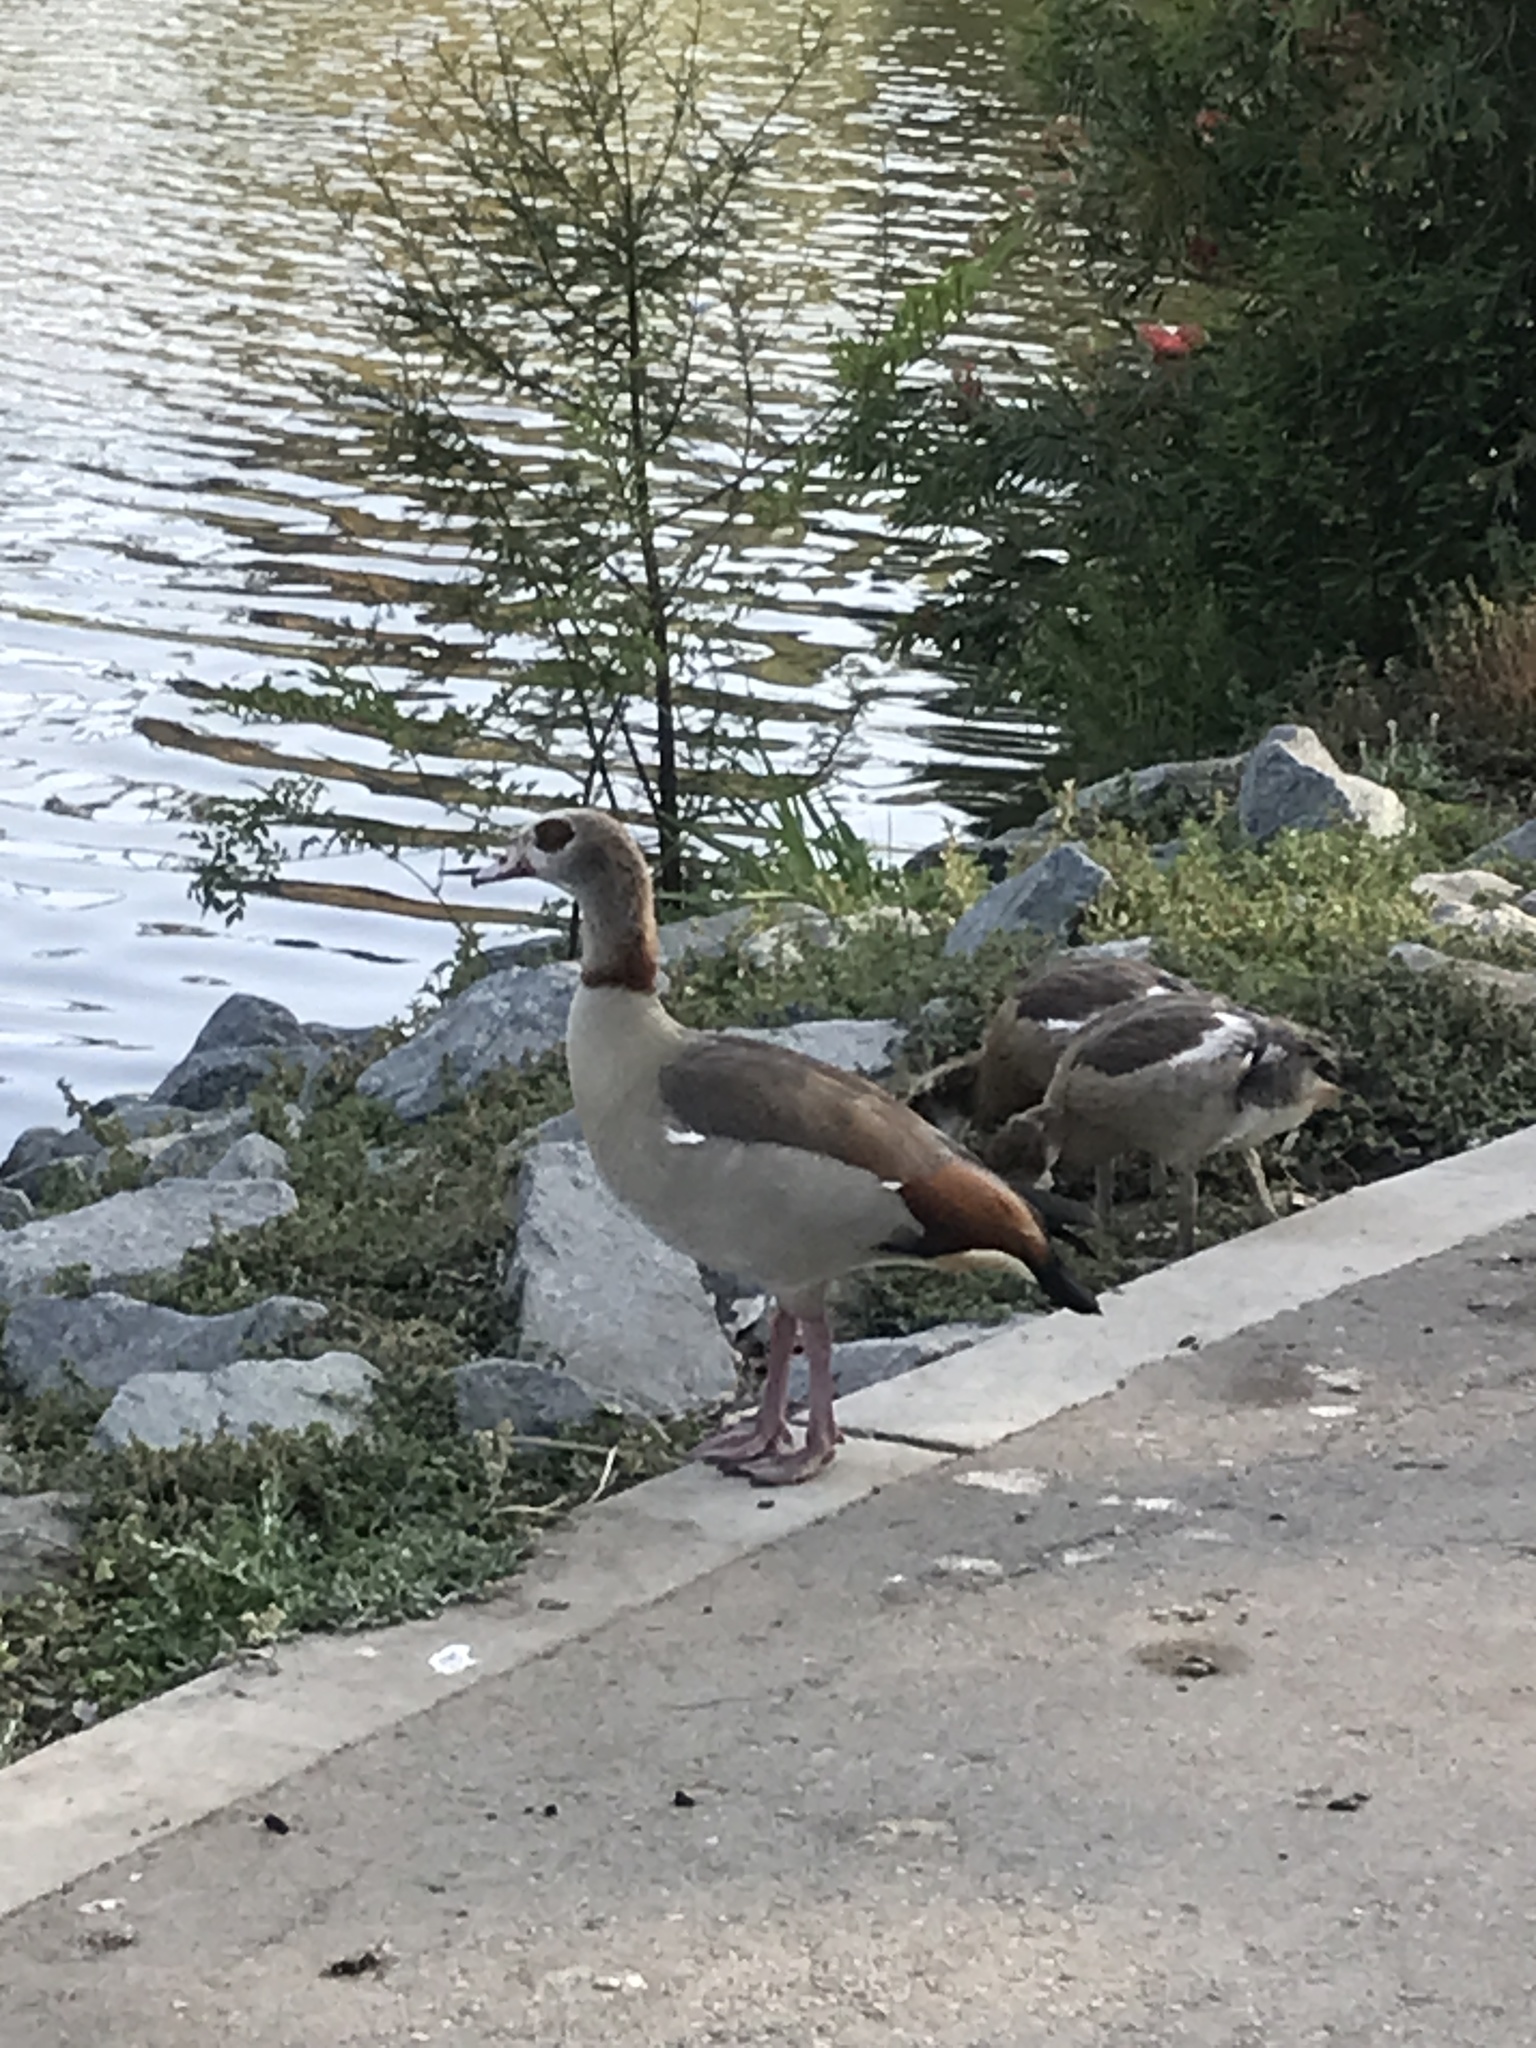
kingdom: Animalia
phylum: Chordata
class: Aves
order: Anseriformes
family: Anatidae
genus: Alopochen
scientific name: Alopochen aegyptiaca
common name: Egyptian goose
